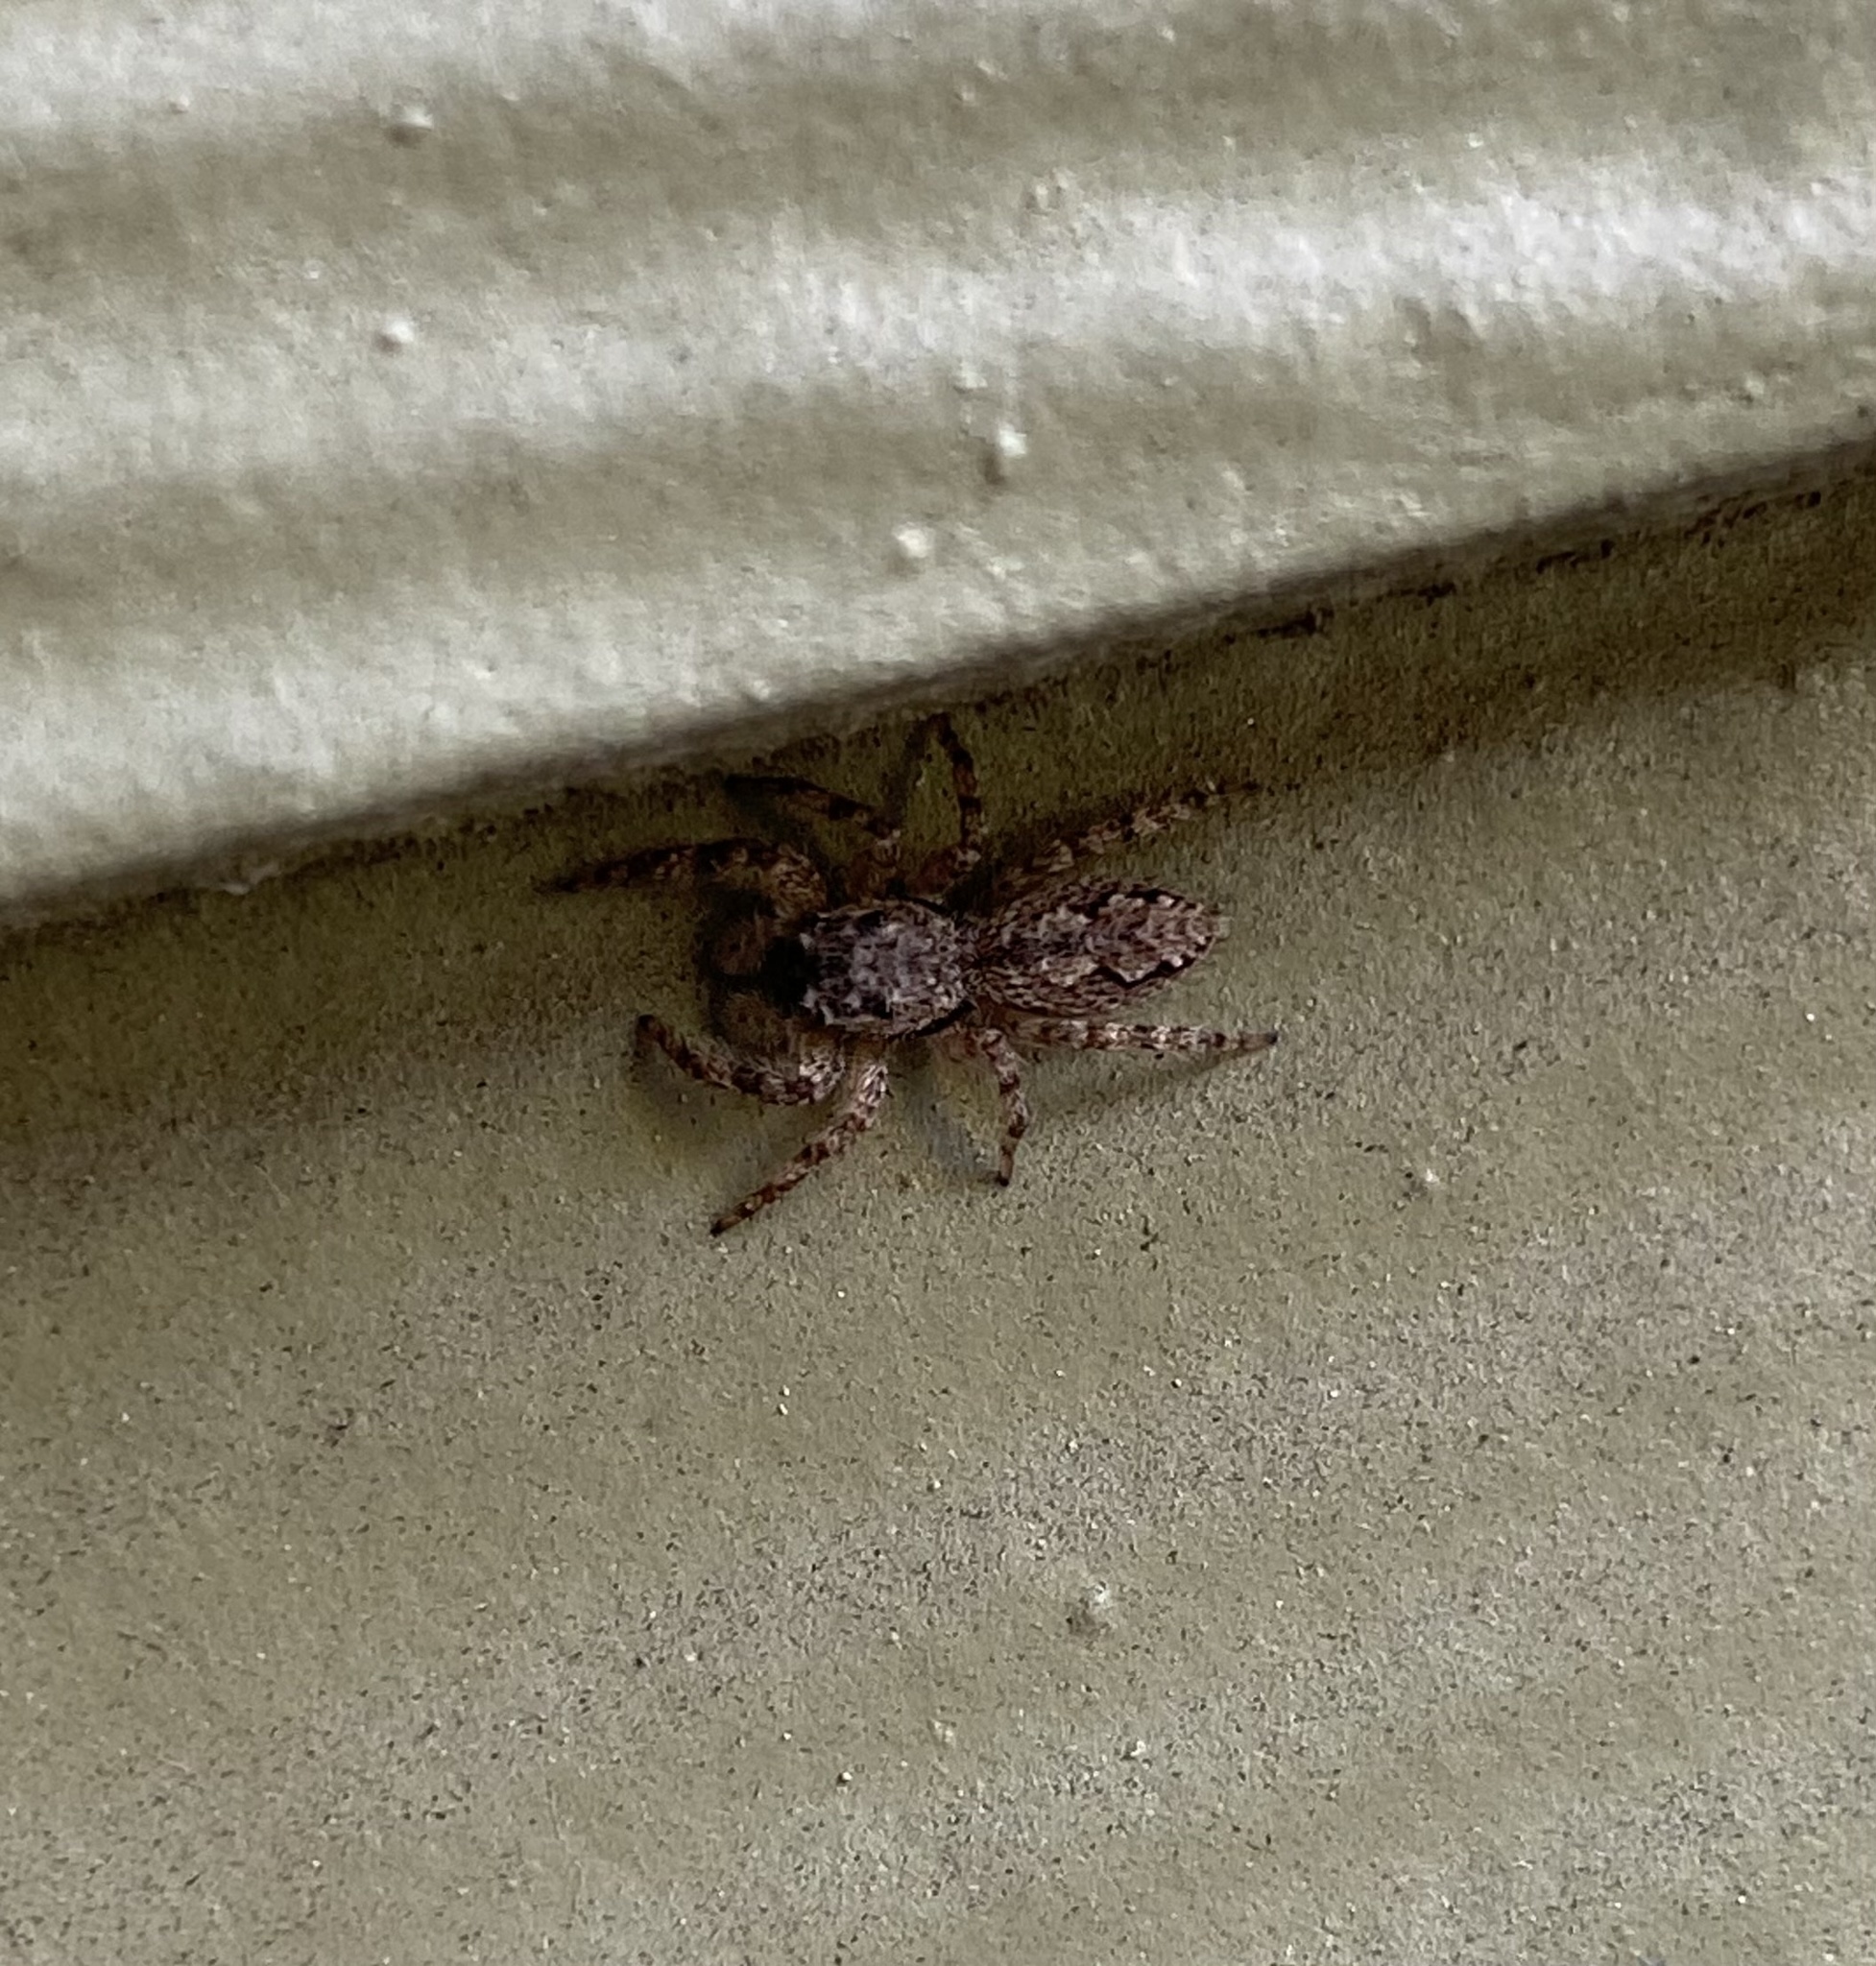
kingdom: Animalia
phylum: Arthropoda
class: Arachnida
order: Araneae
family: Salticidae
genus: Platycryptus
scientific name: Platycryptus undatus
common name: Tan jumping spider
